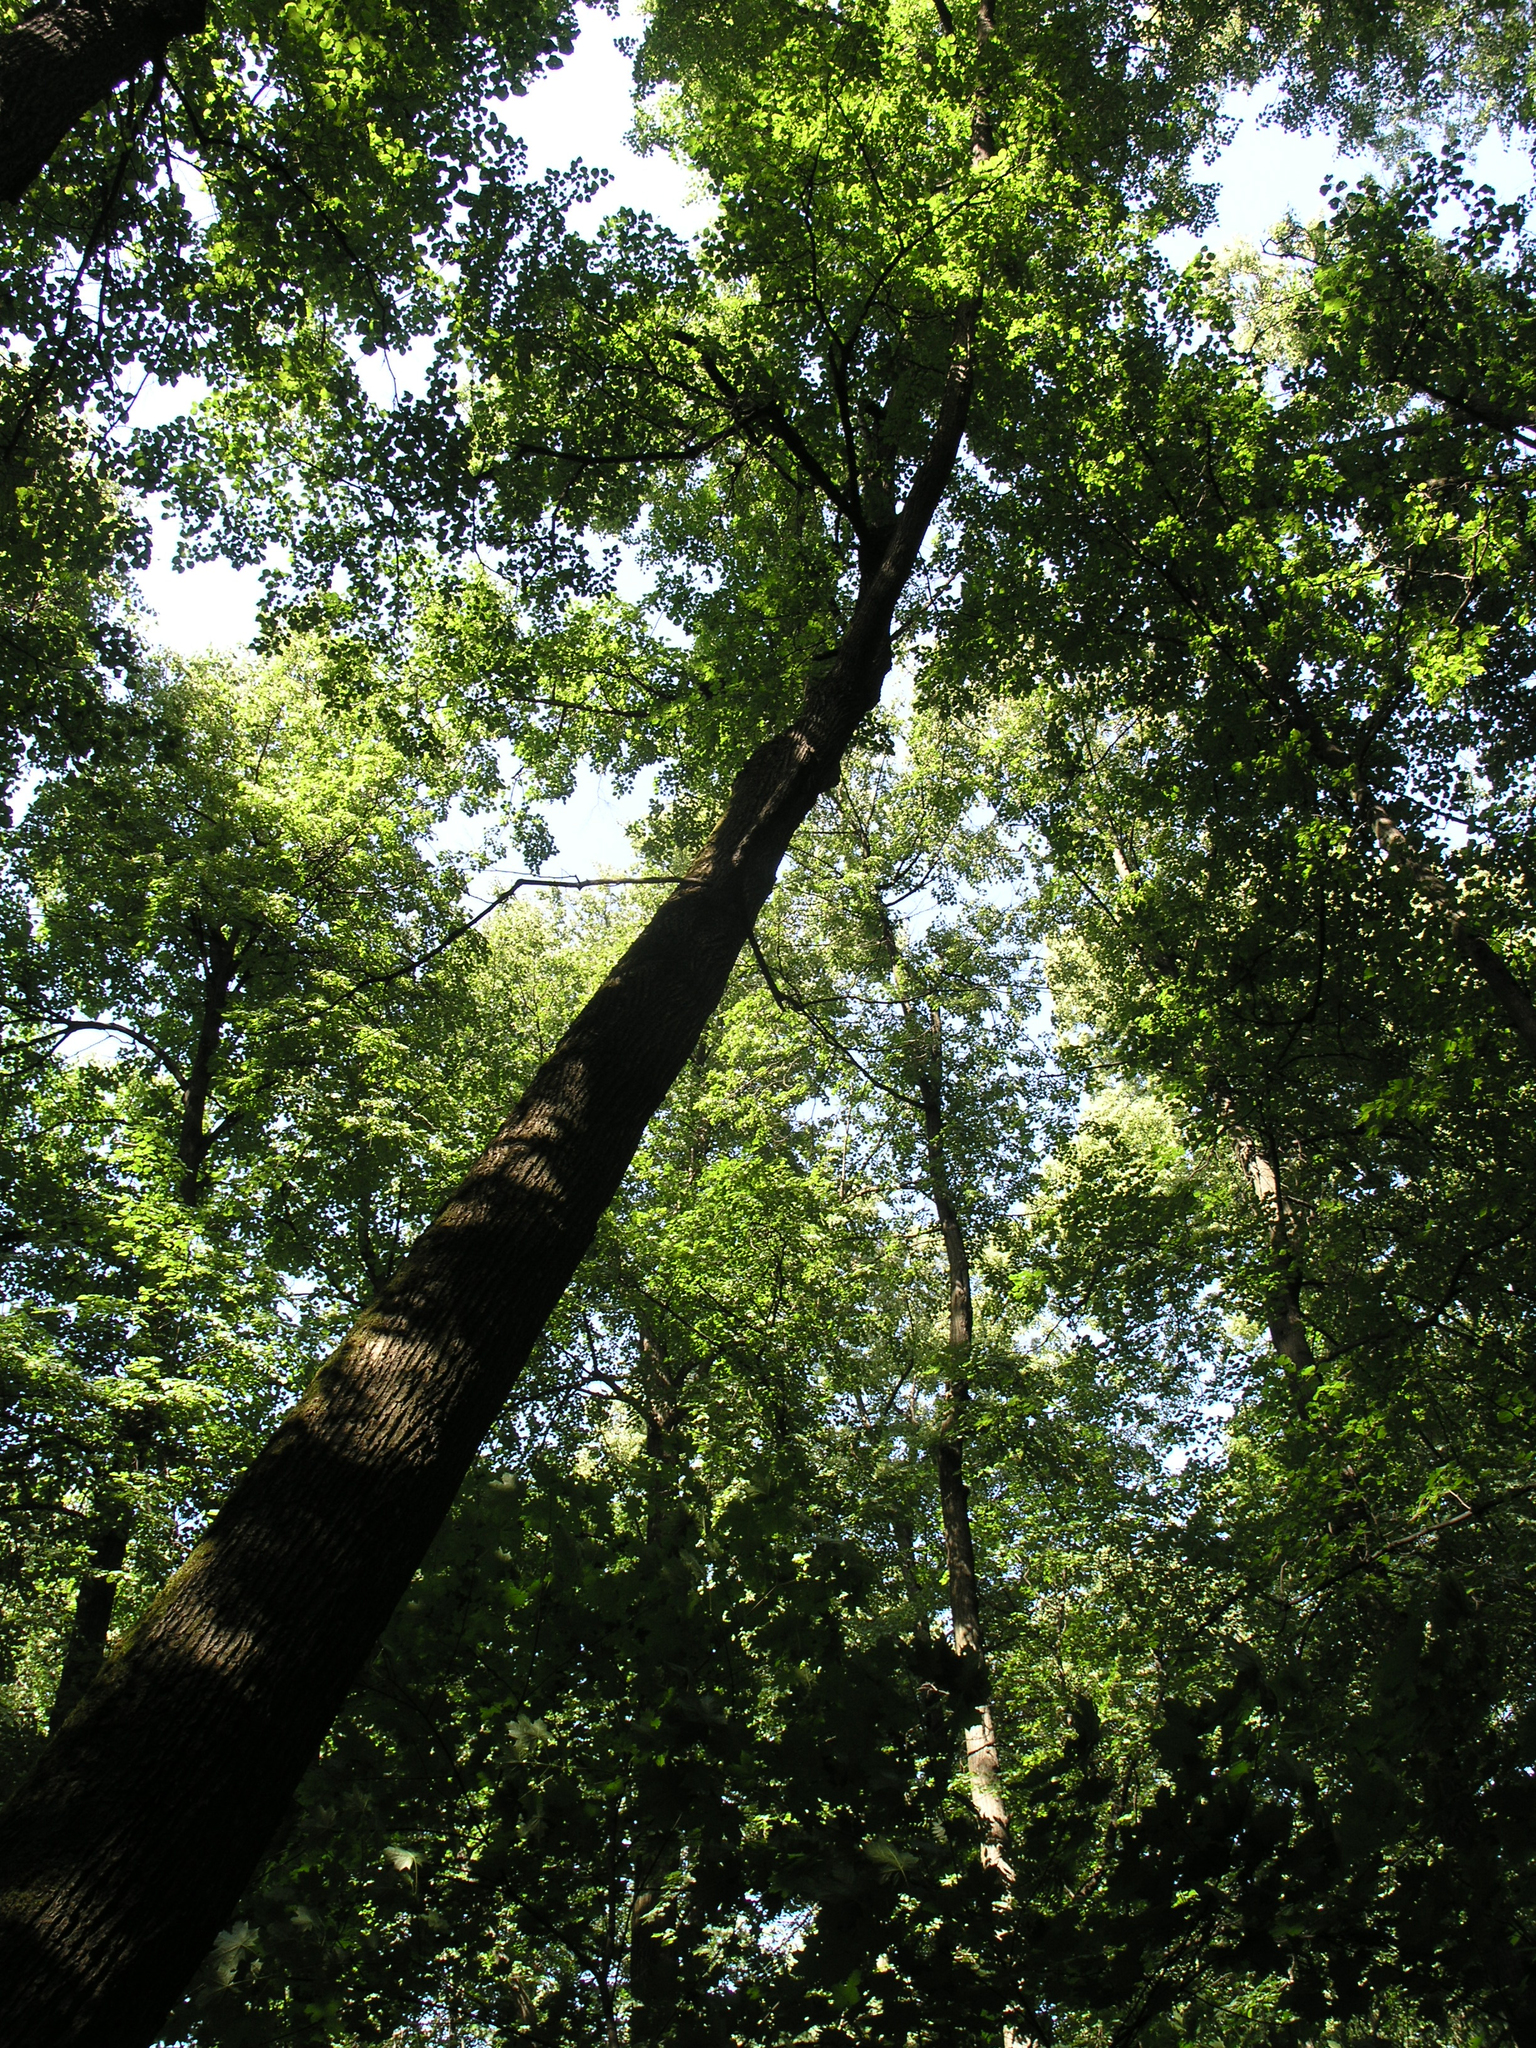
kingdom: Plantae
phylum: Tracheophyta
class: Magnoliopsida
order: Malvales
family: Malvaceae
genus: Tilia
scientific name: Tilia cordata
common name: Small-leaved lime
